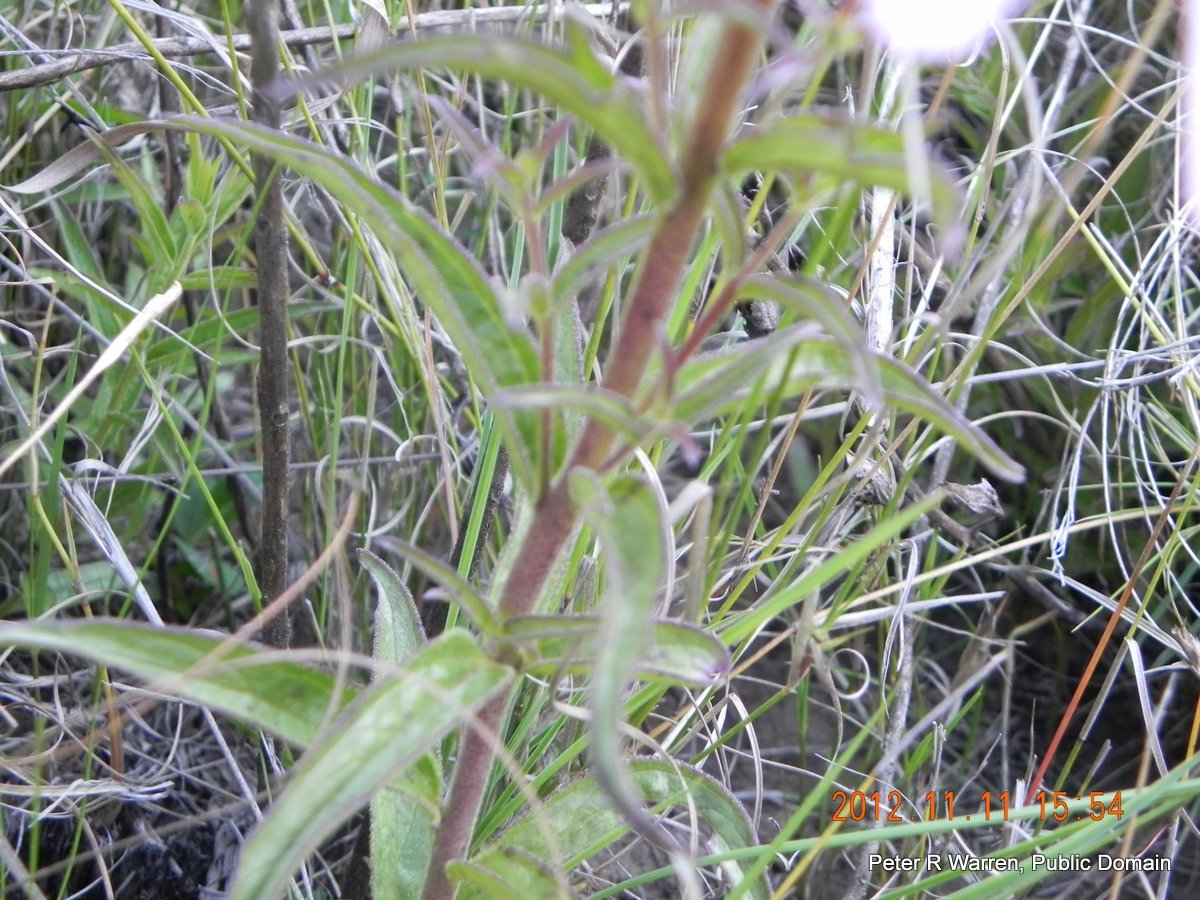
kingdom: Plantae
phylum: Tracheophyta
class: Magnoliopsida
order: Lamiales
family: Orobanchaceae
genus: Cycnium
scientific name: Cycnium tubulosum
